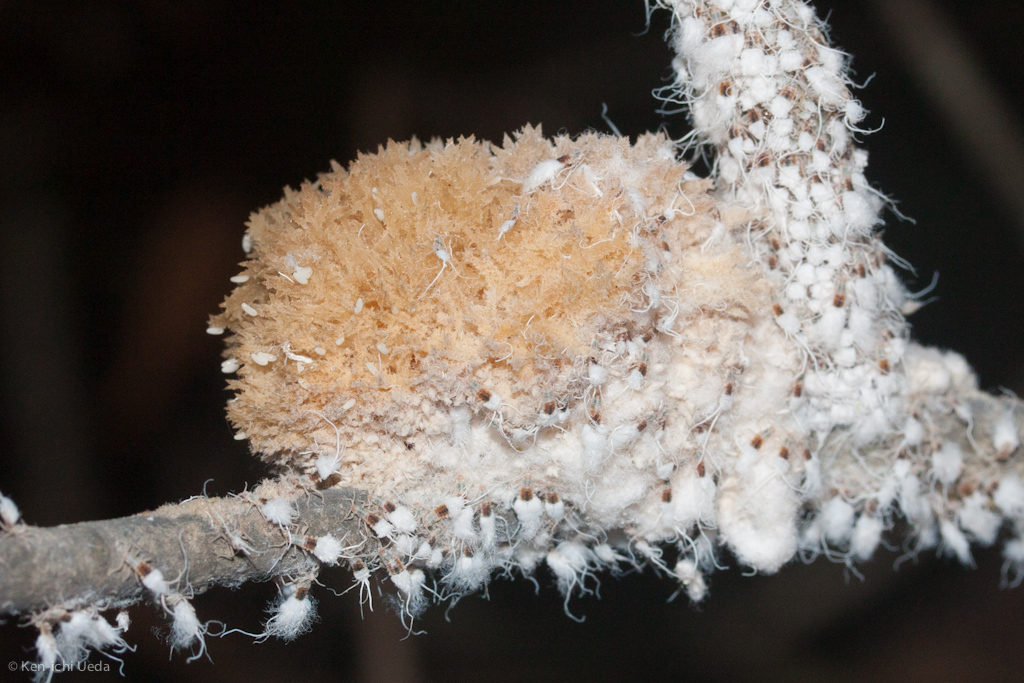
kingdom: Fungi
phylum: Ascomycota
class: Dothideomycetes
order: Capnodiales
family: Capnodiaceae
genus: Scorias
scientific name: Scorias spongiosa
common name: Black sooty mold
